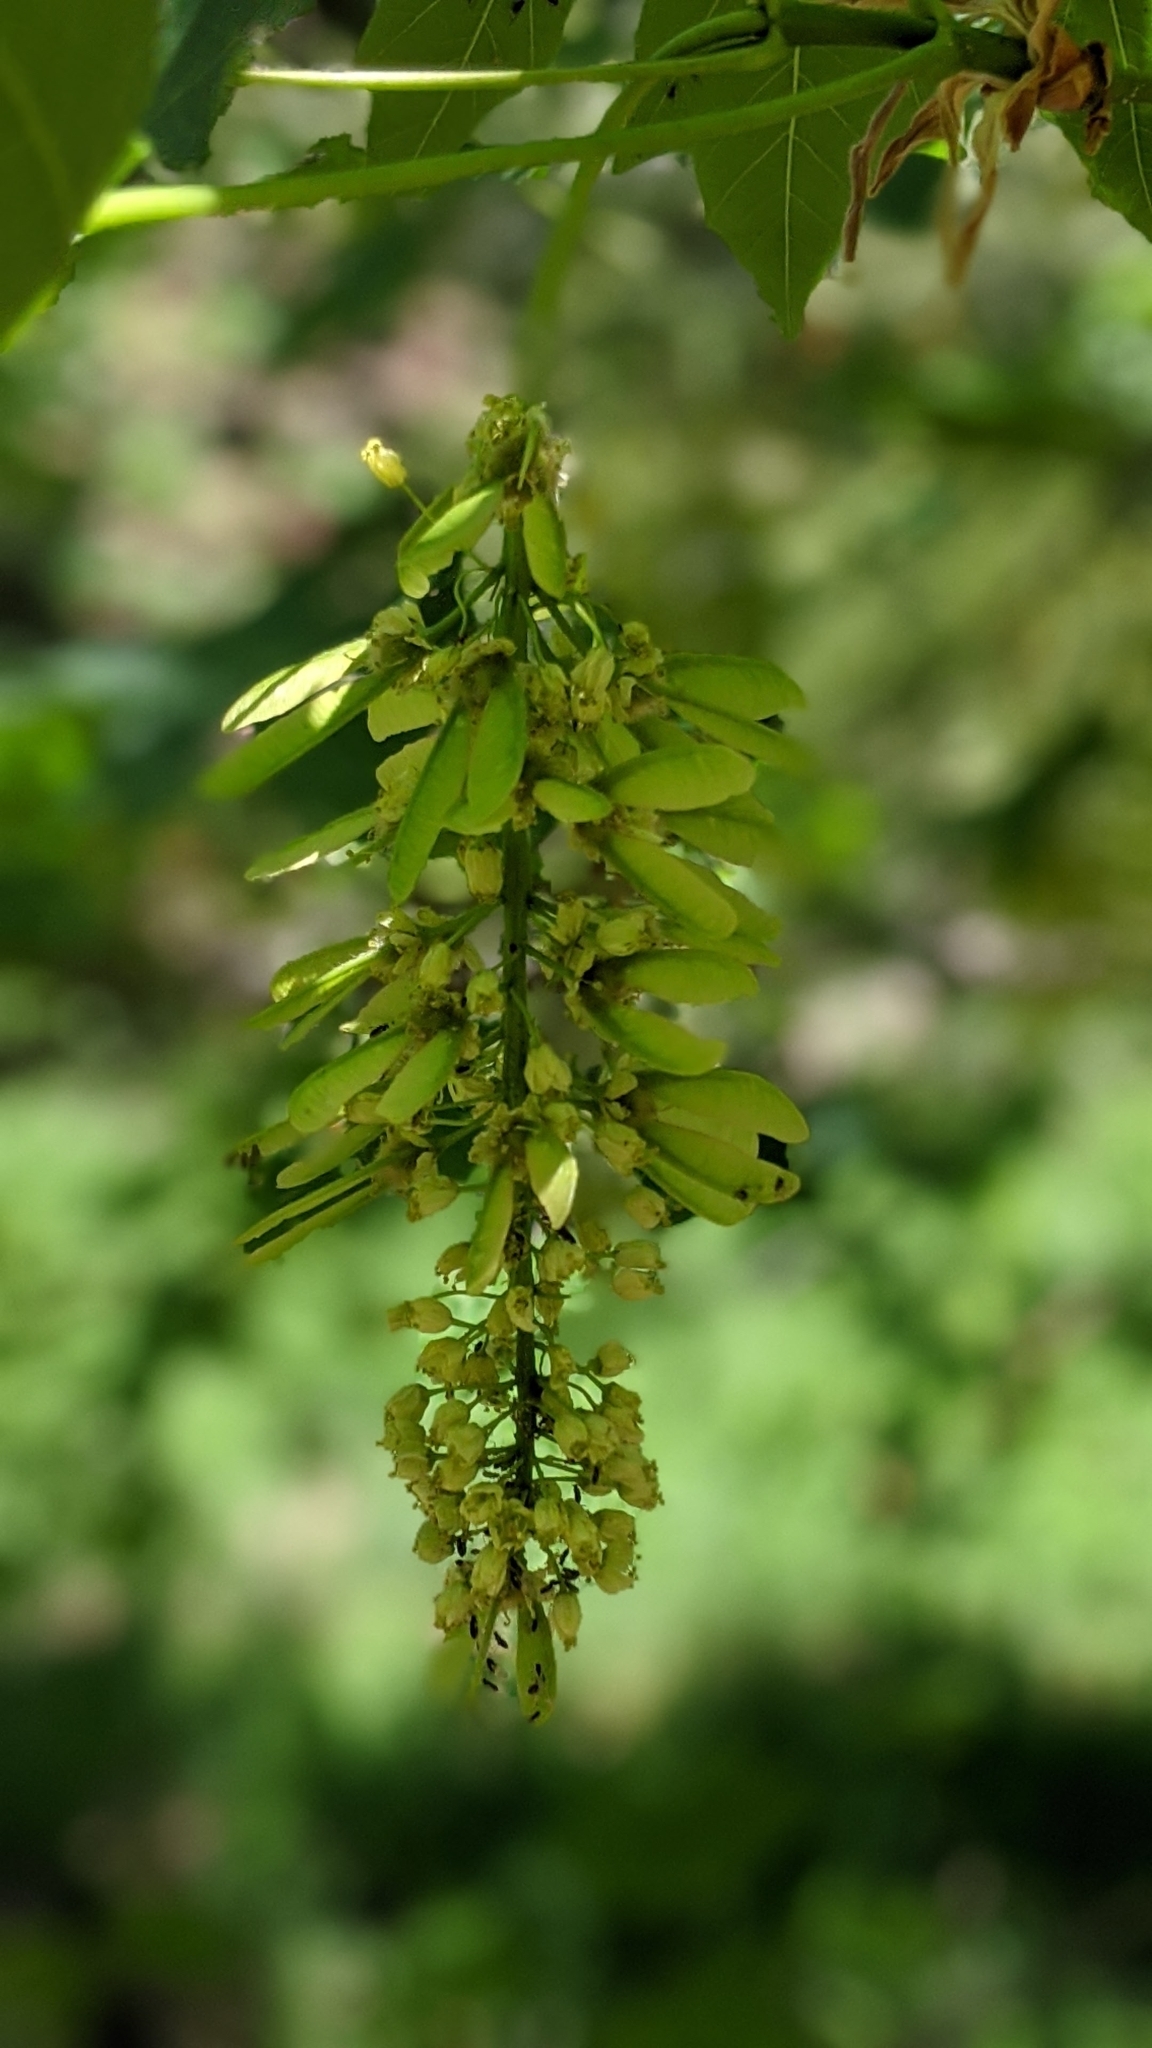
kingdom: Plantae
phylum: Tracheophyta
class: Magnoliopsida
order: Sapindales
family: Sapindaceae
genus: Acer
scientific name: Acer macrophyllum
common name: Oregon maple
